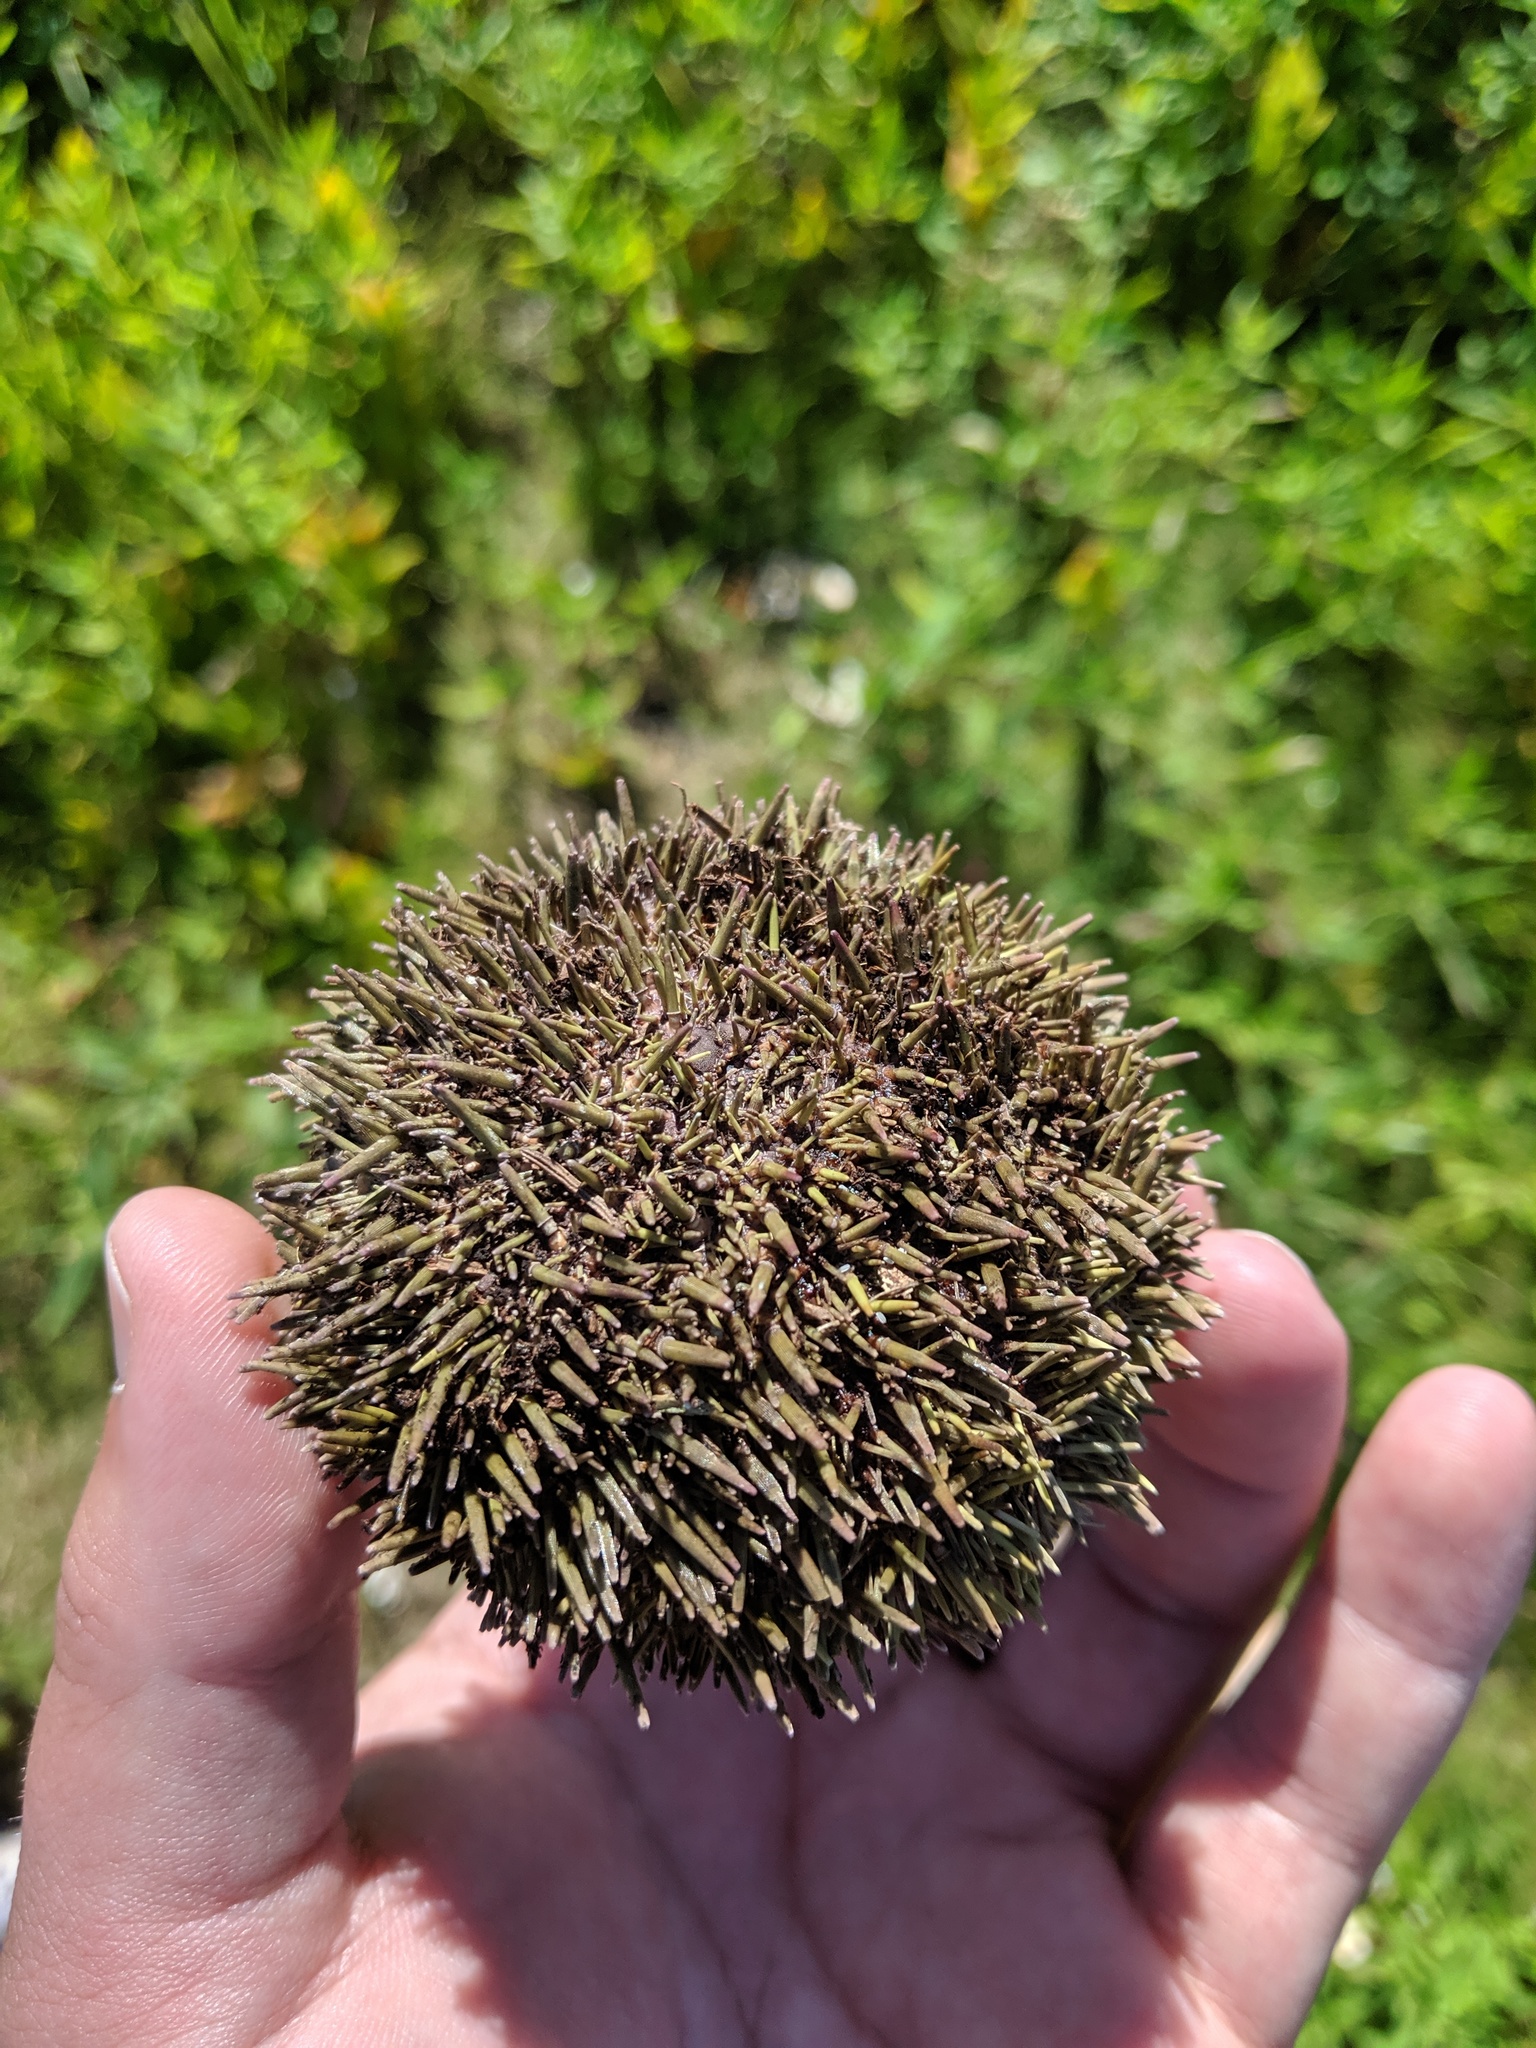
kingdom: Animalia
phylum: Echinodermata
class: Echinoidea
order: Camarodonta
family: Strongylocentrotidae
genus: Strongylocentrotus
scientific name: Strongylocentrotus droebachiensis
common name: Northern sea urchin
